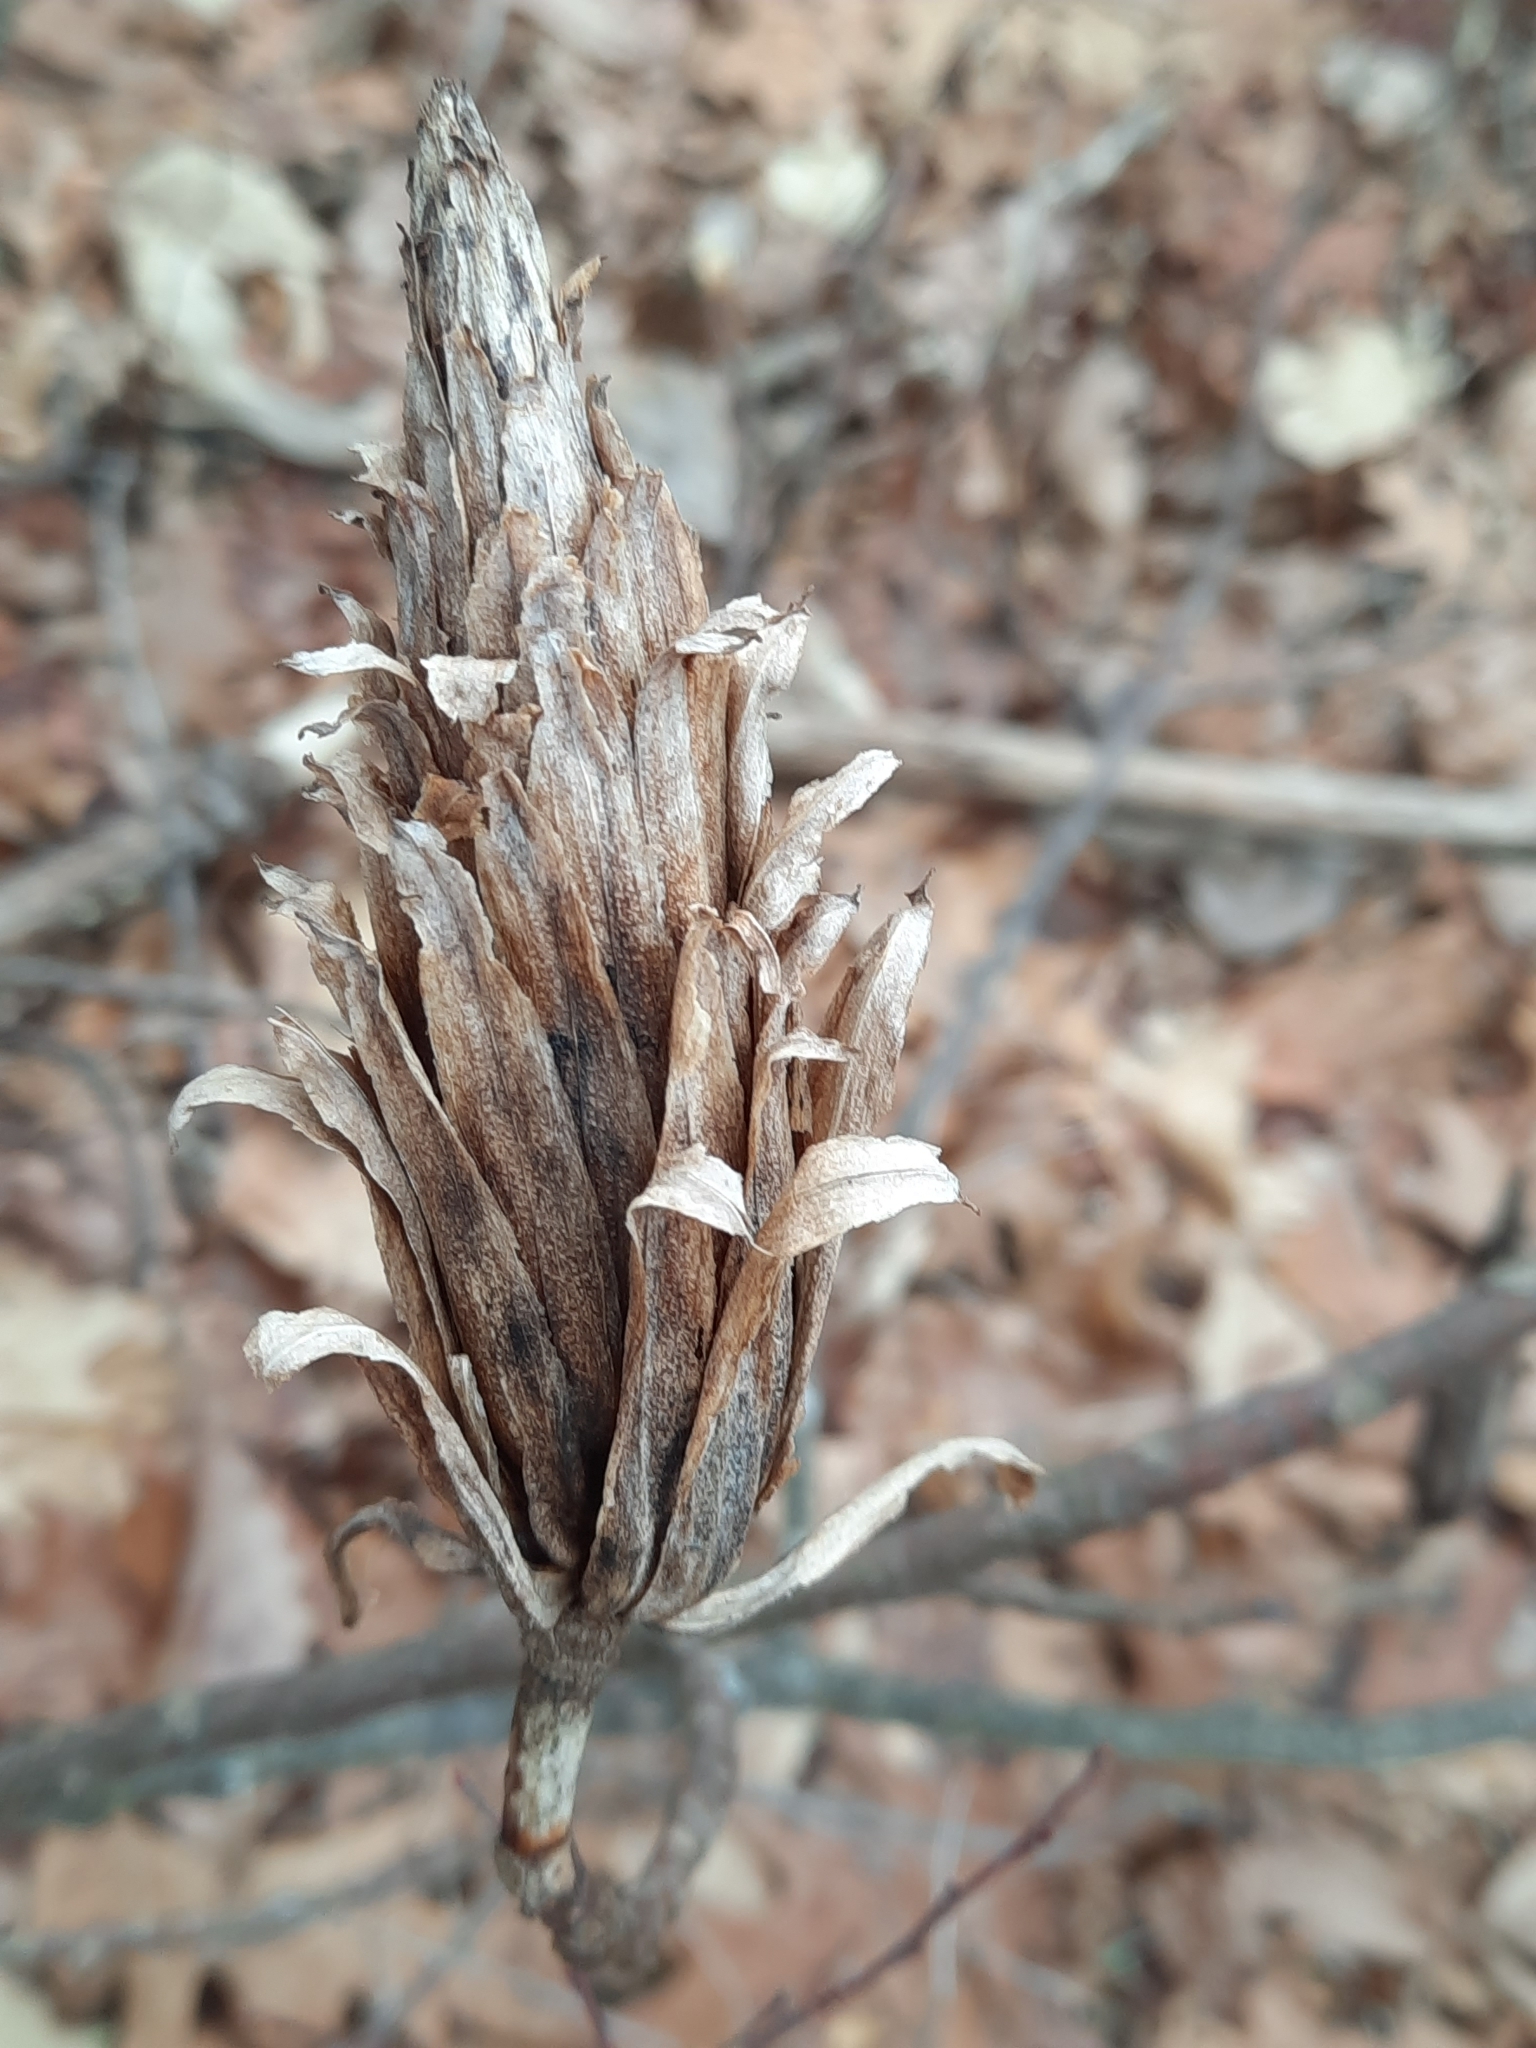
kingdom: Plantae
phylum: Tracheophyta
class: Magnoliopsida
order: Magnoliales
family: Magnoliaceae
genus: Liriodendron
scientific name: Liriodendron tulipifera
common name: Tulip tree
